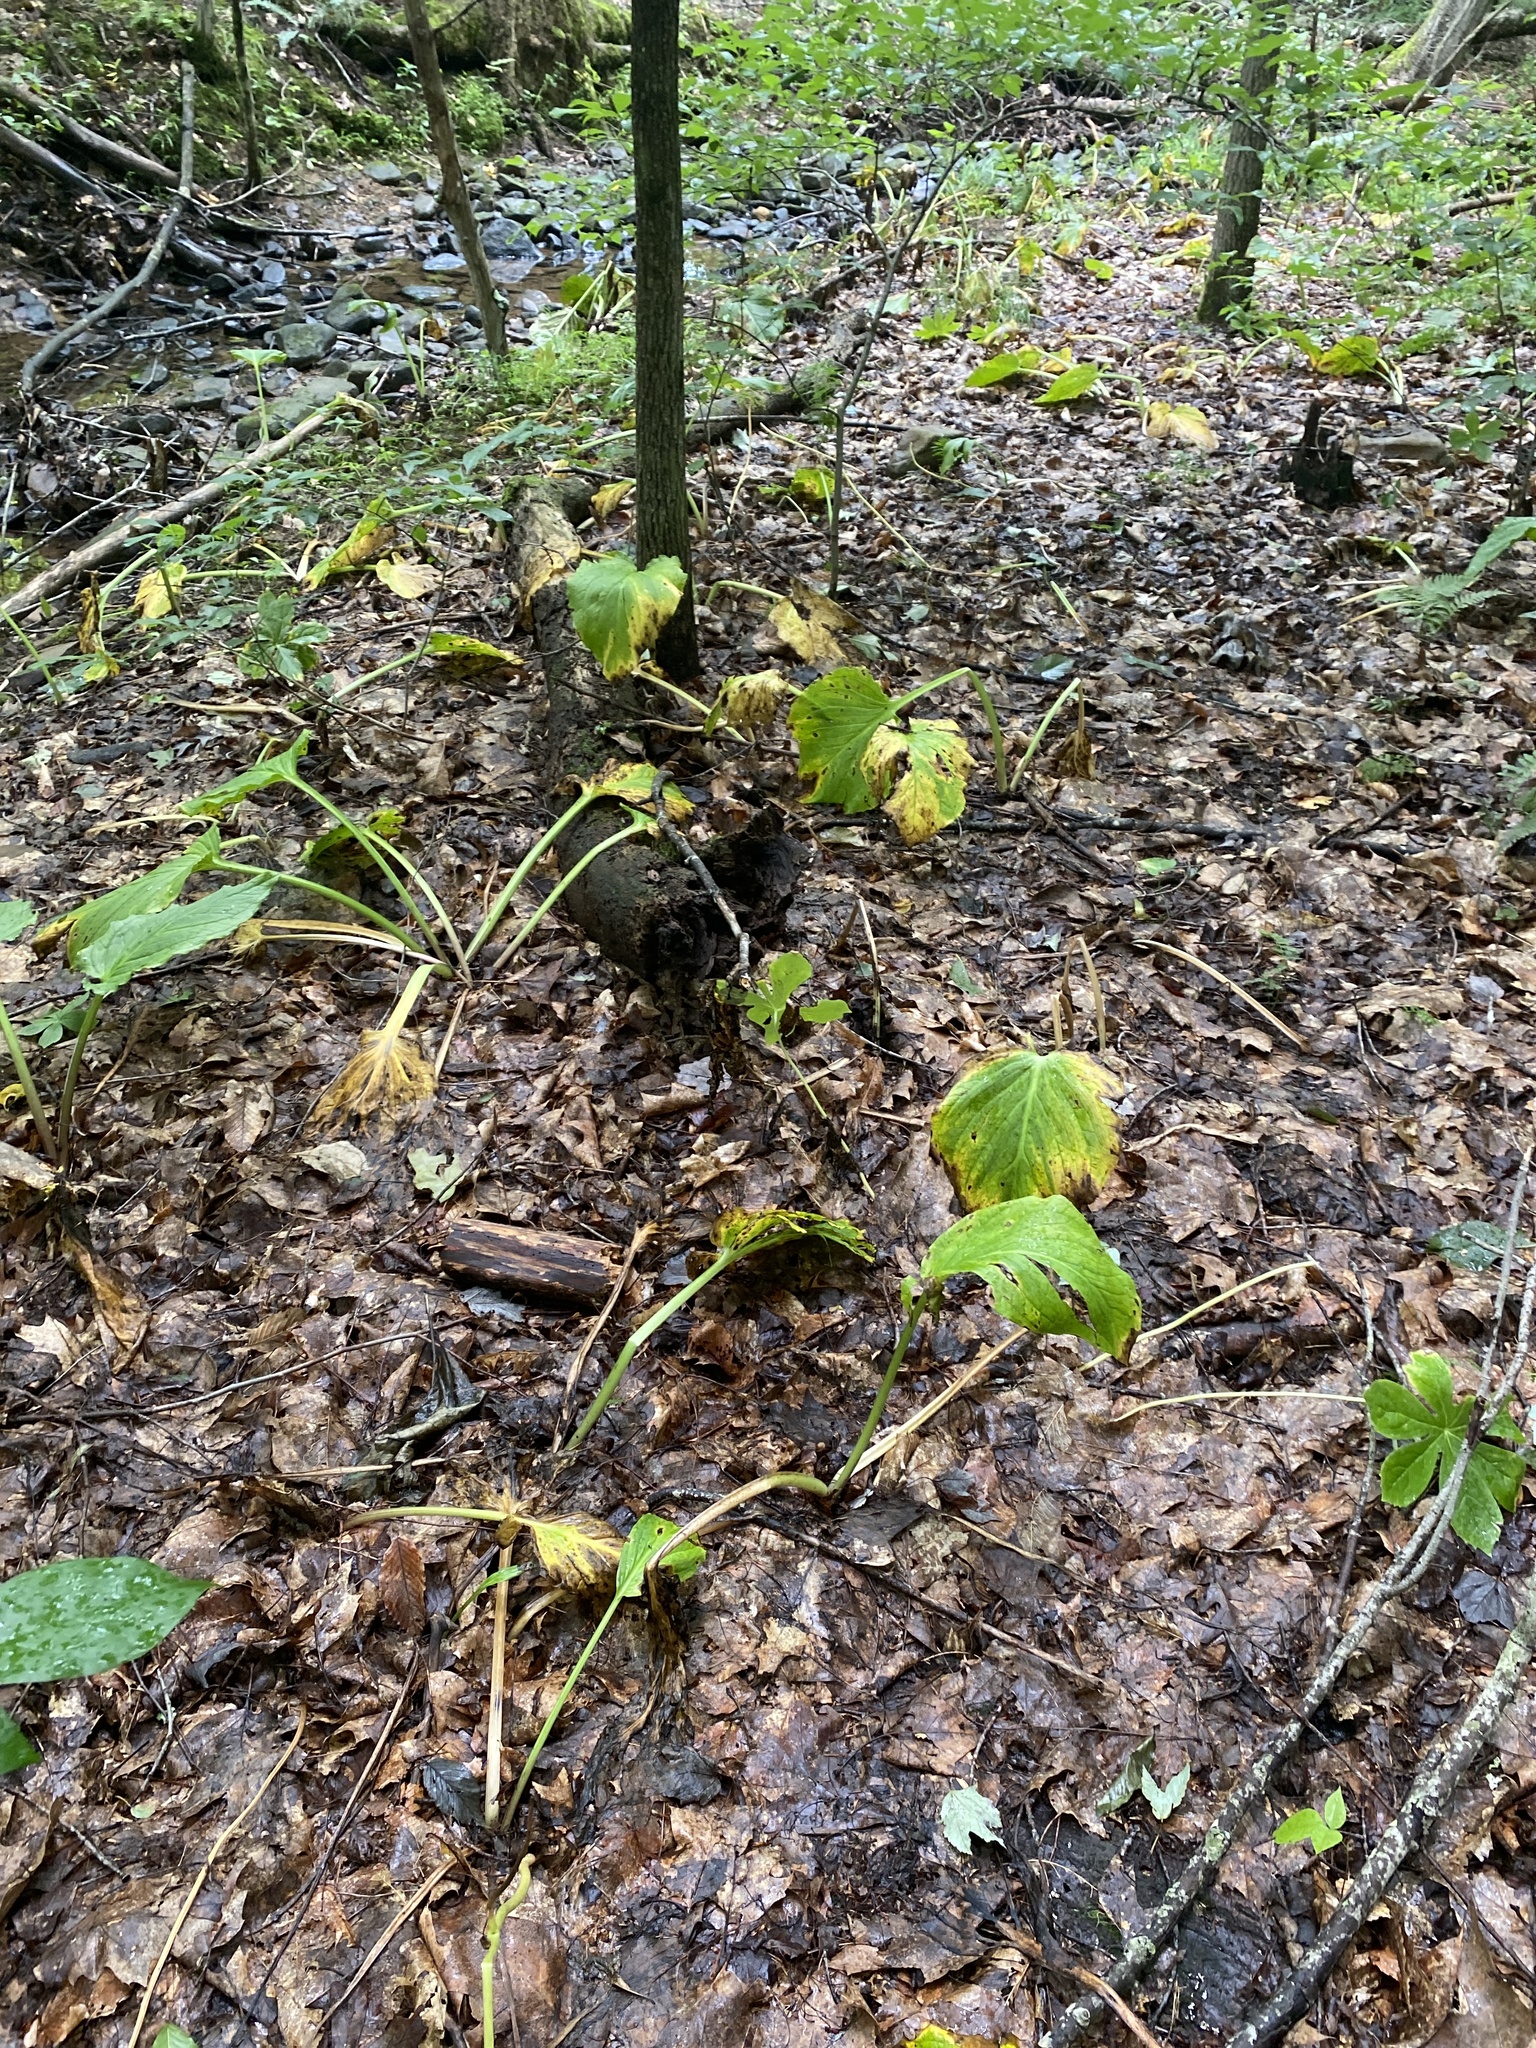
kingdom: Plantae
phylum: Tracheophyta
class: Liliopsida
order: Alismatales
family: Araceae
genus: Symplocarpus
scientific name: Symplocarpus foetidus
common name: Eastern skunk cabbage
